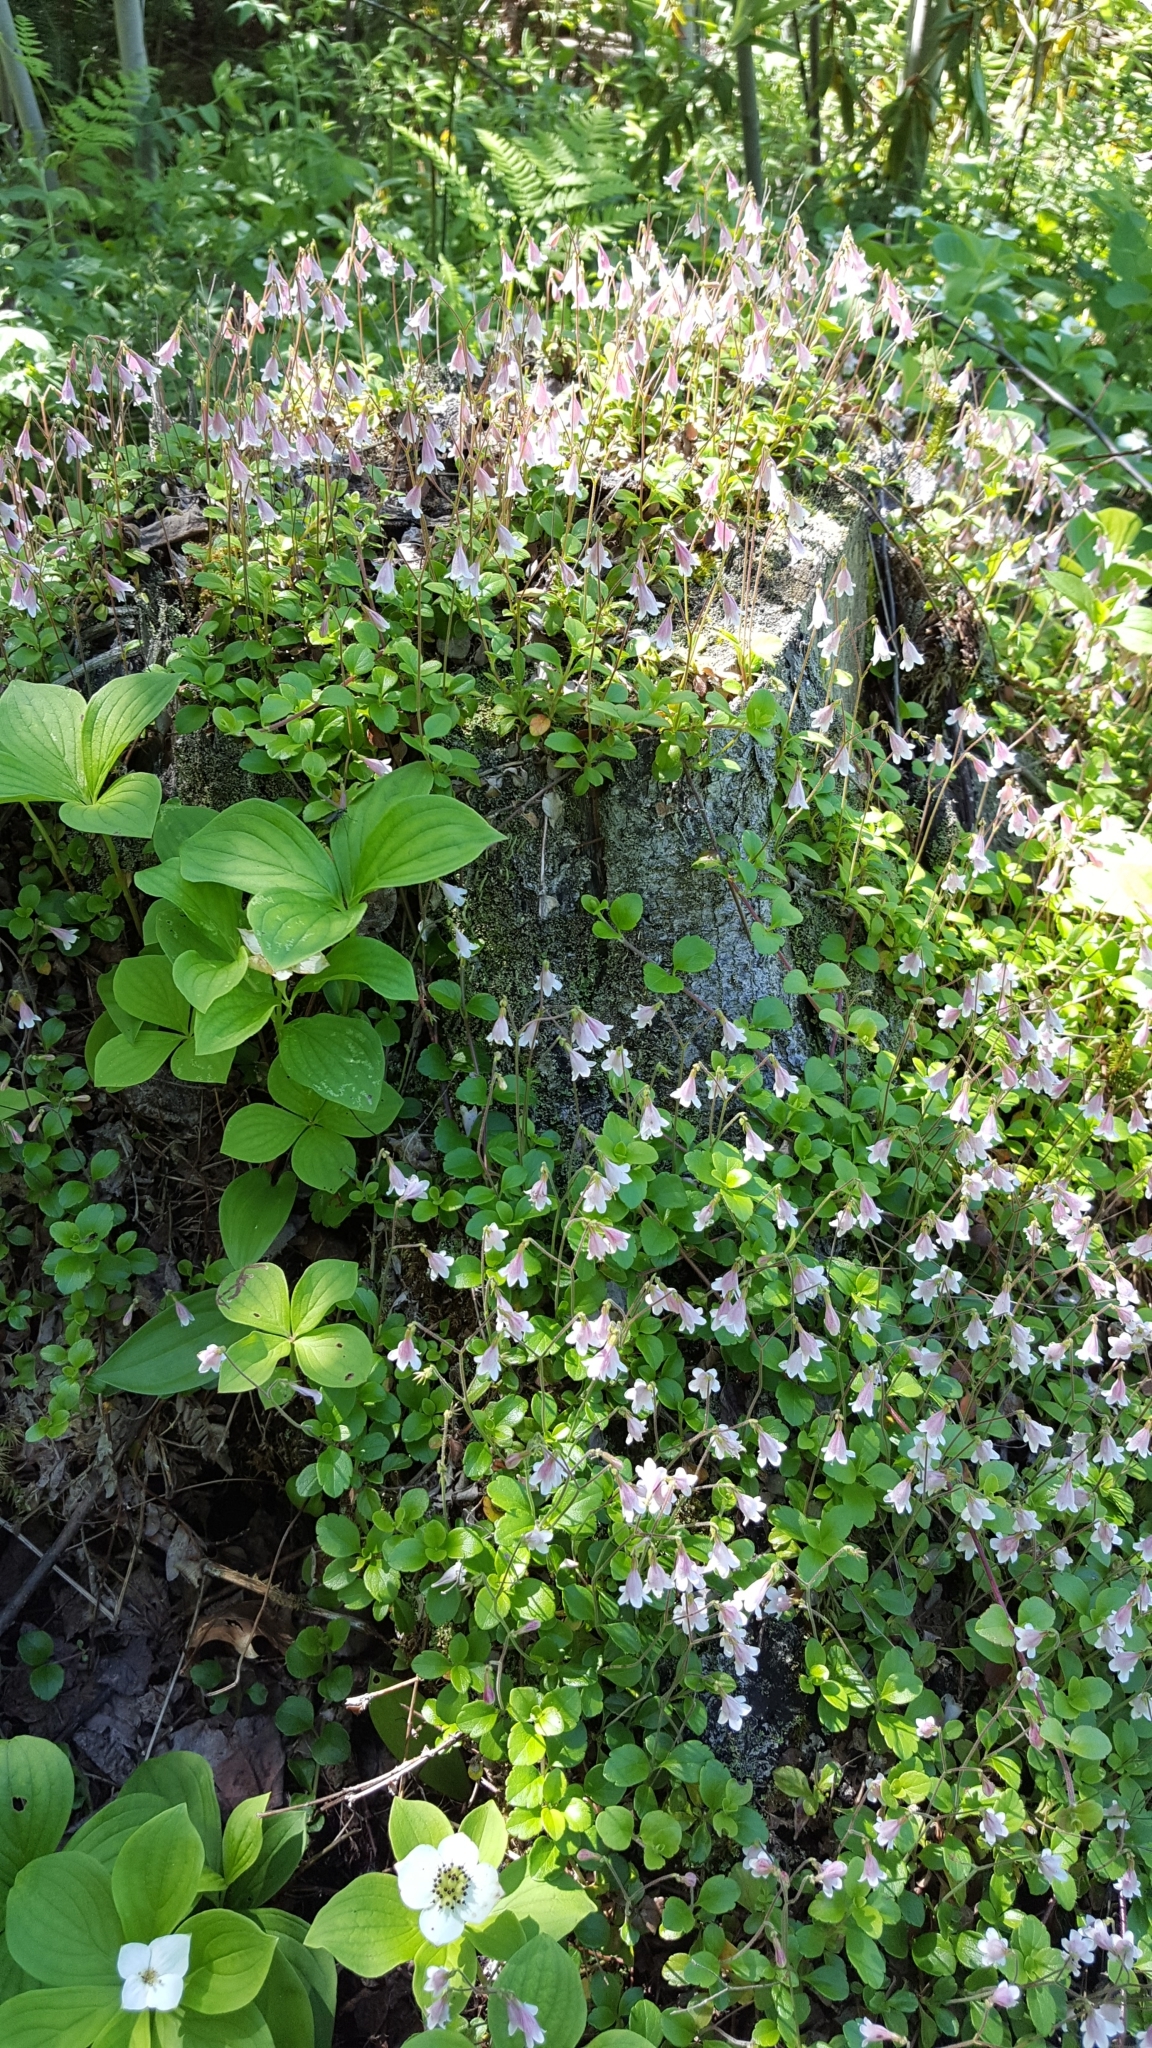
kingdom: Plantae
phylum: Tracheophyta
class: Magnoliopsida
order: Dipsacales
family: Caprifoliaceae
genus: Linnaea
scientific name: Linnaea borealis
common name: Twinflower
